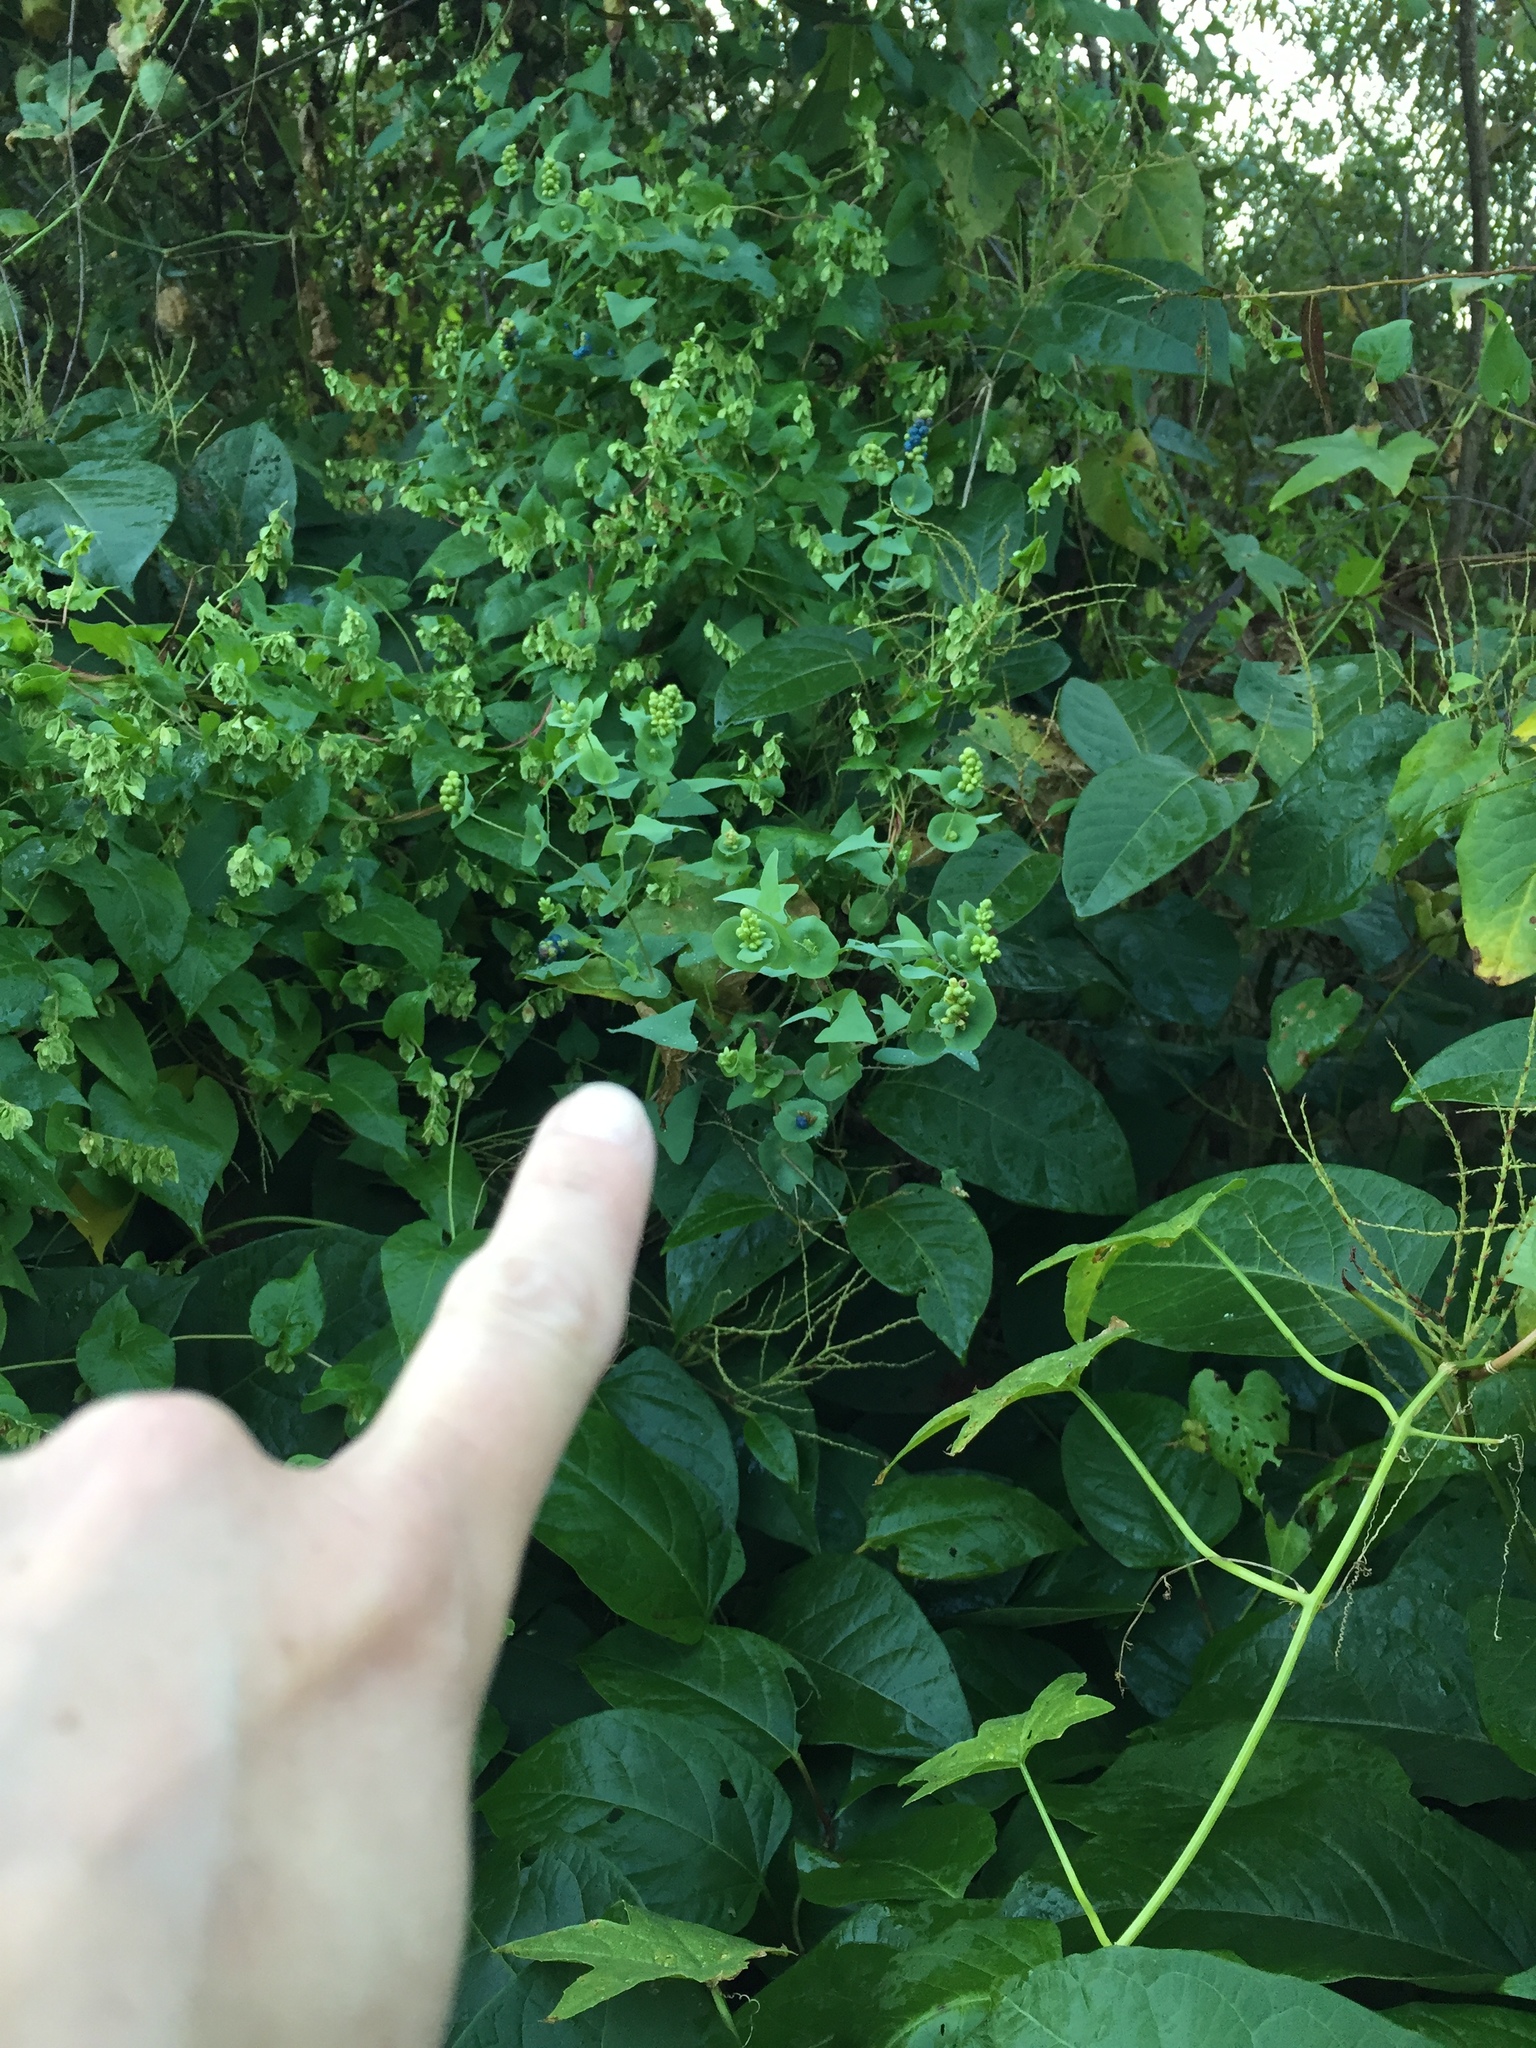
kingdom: Plantae
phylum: Tracheophyta
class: Magnoliopsida
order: Caryophyllales
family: Polygonaceae
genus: Persicaria
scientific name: Persicaria perfoliata
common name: Asiatic tearthumb
